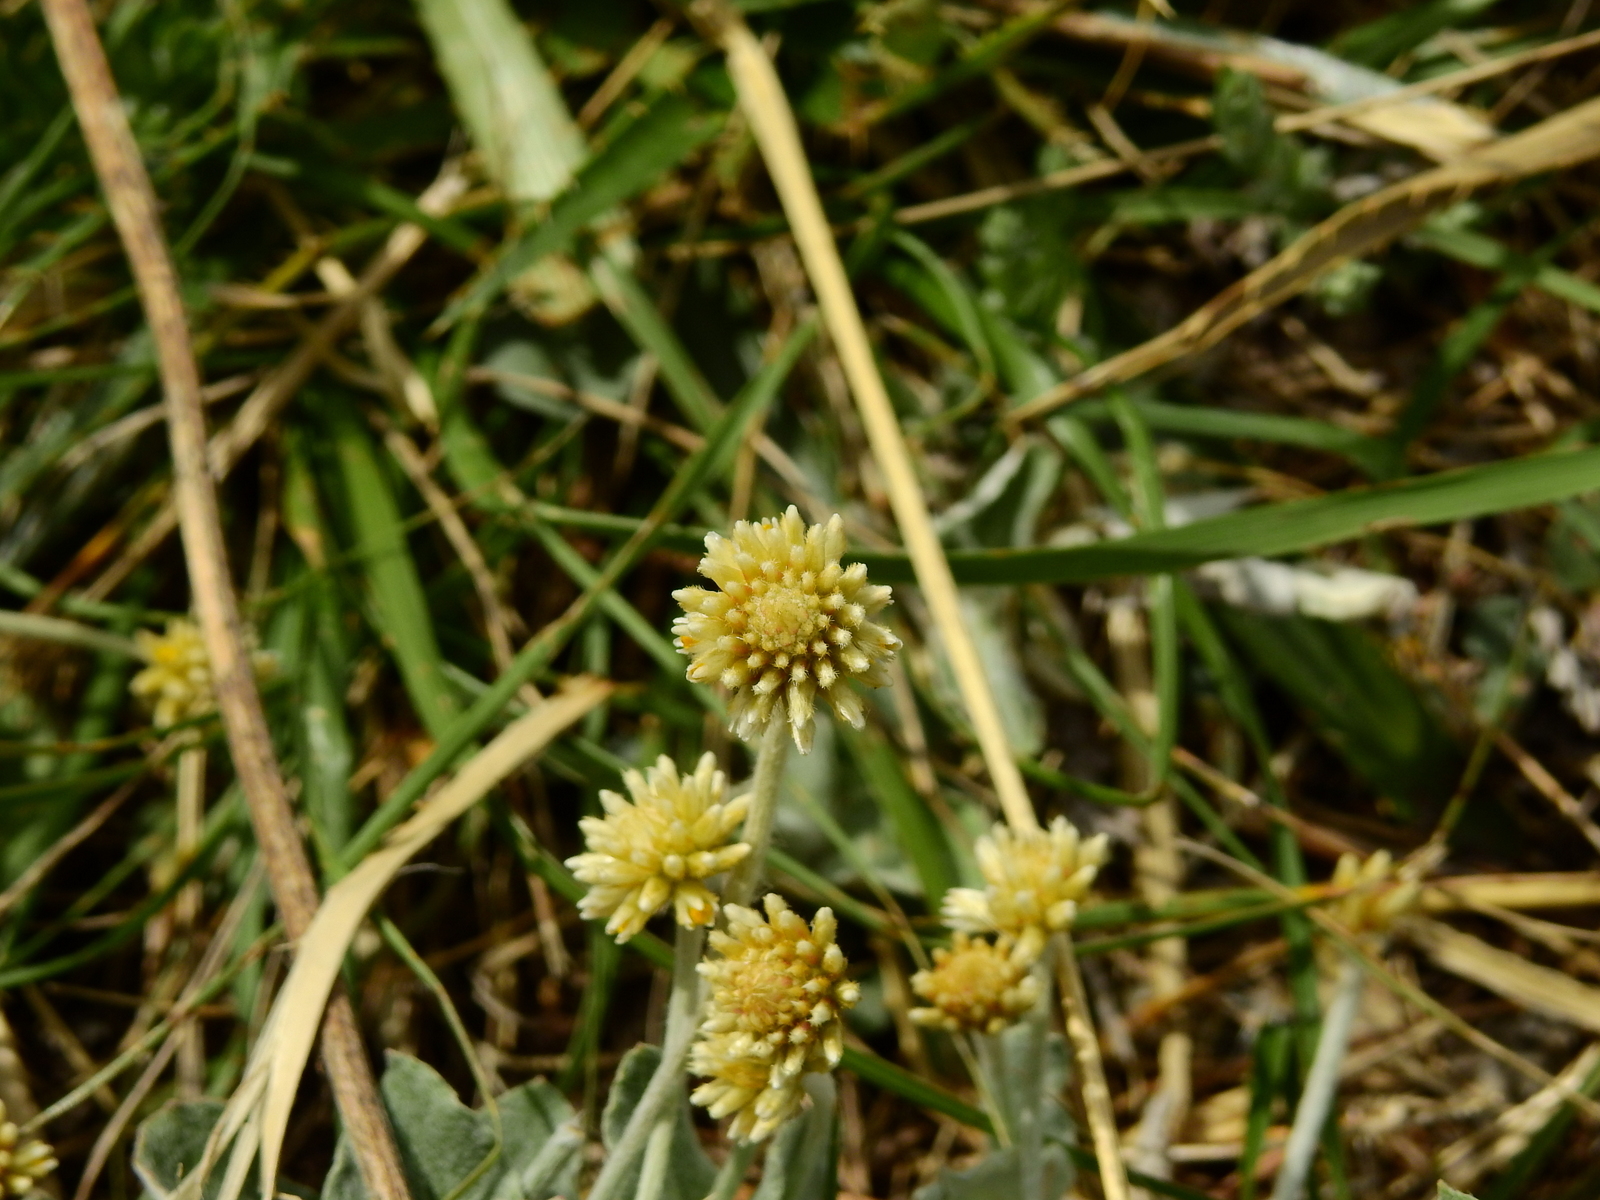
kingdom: Plantae
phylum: Tracheophyta
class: Magnoliopsida
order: Caryophyllales
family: Amaranthaceae
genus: Pfaffia
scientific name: Pfaffia gnaphalioides
